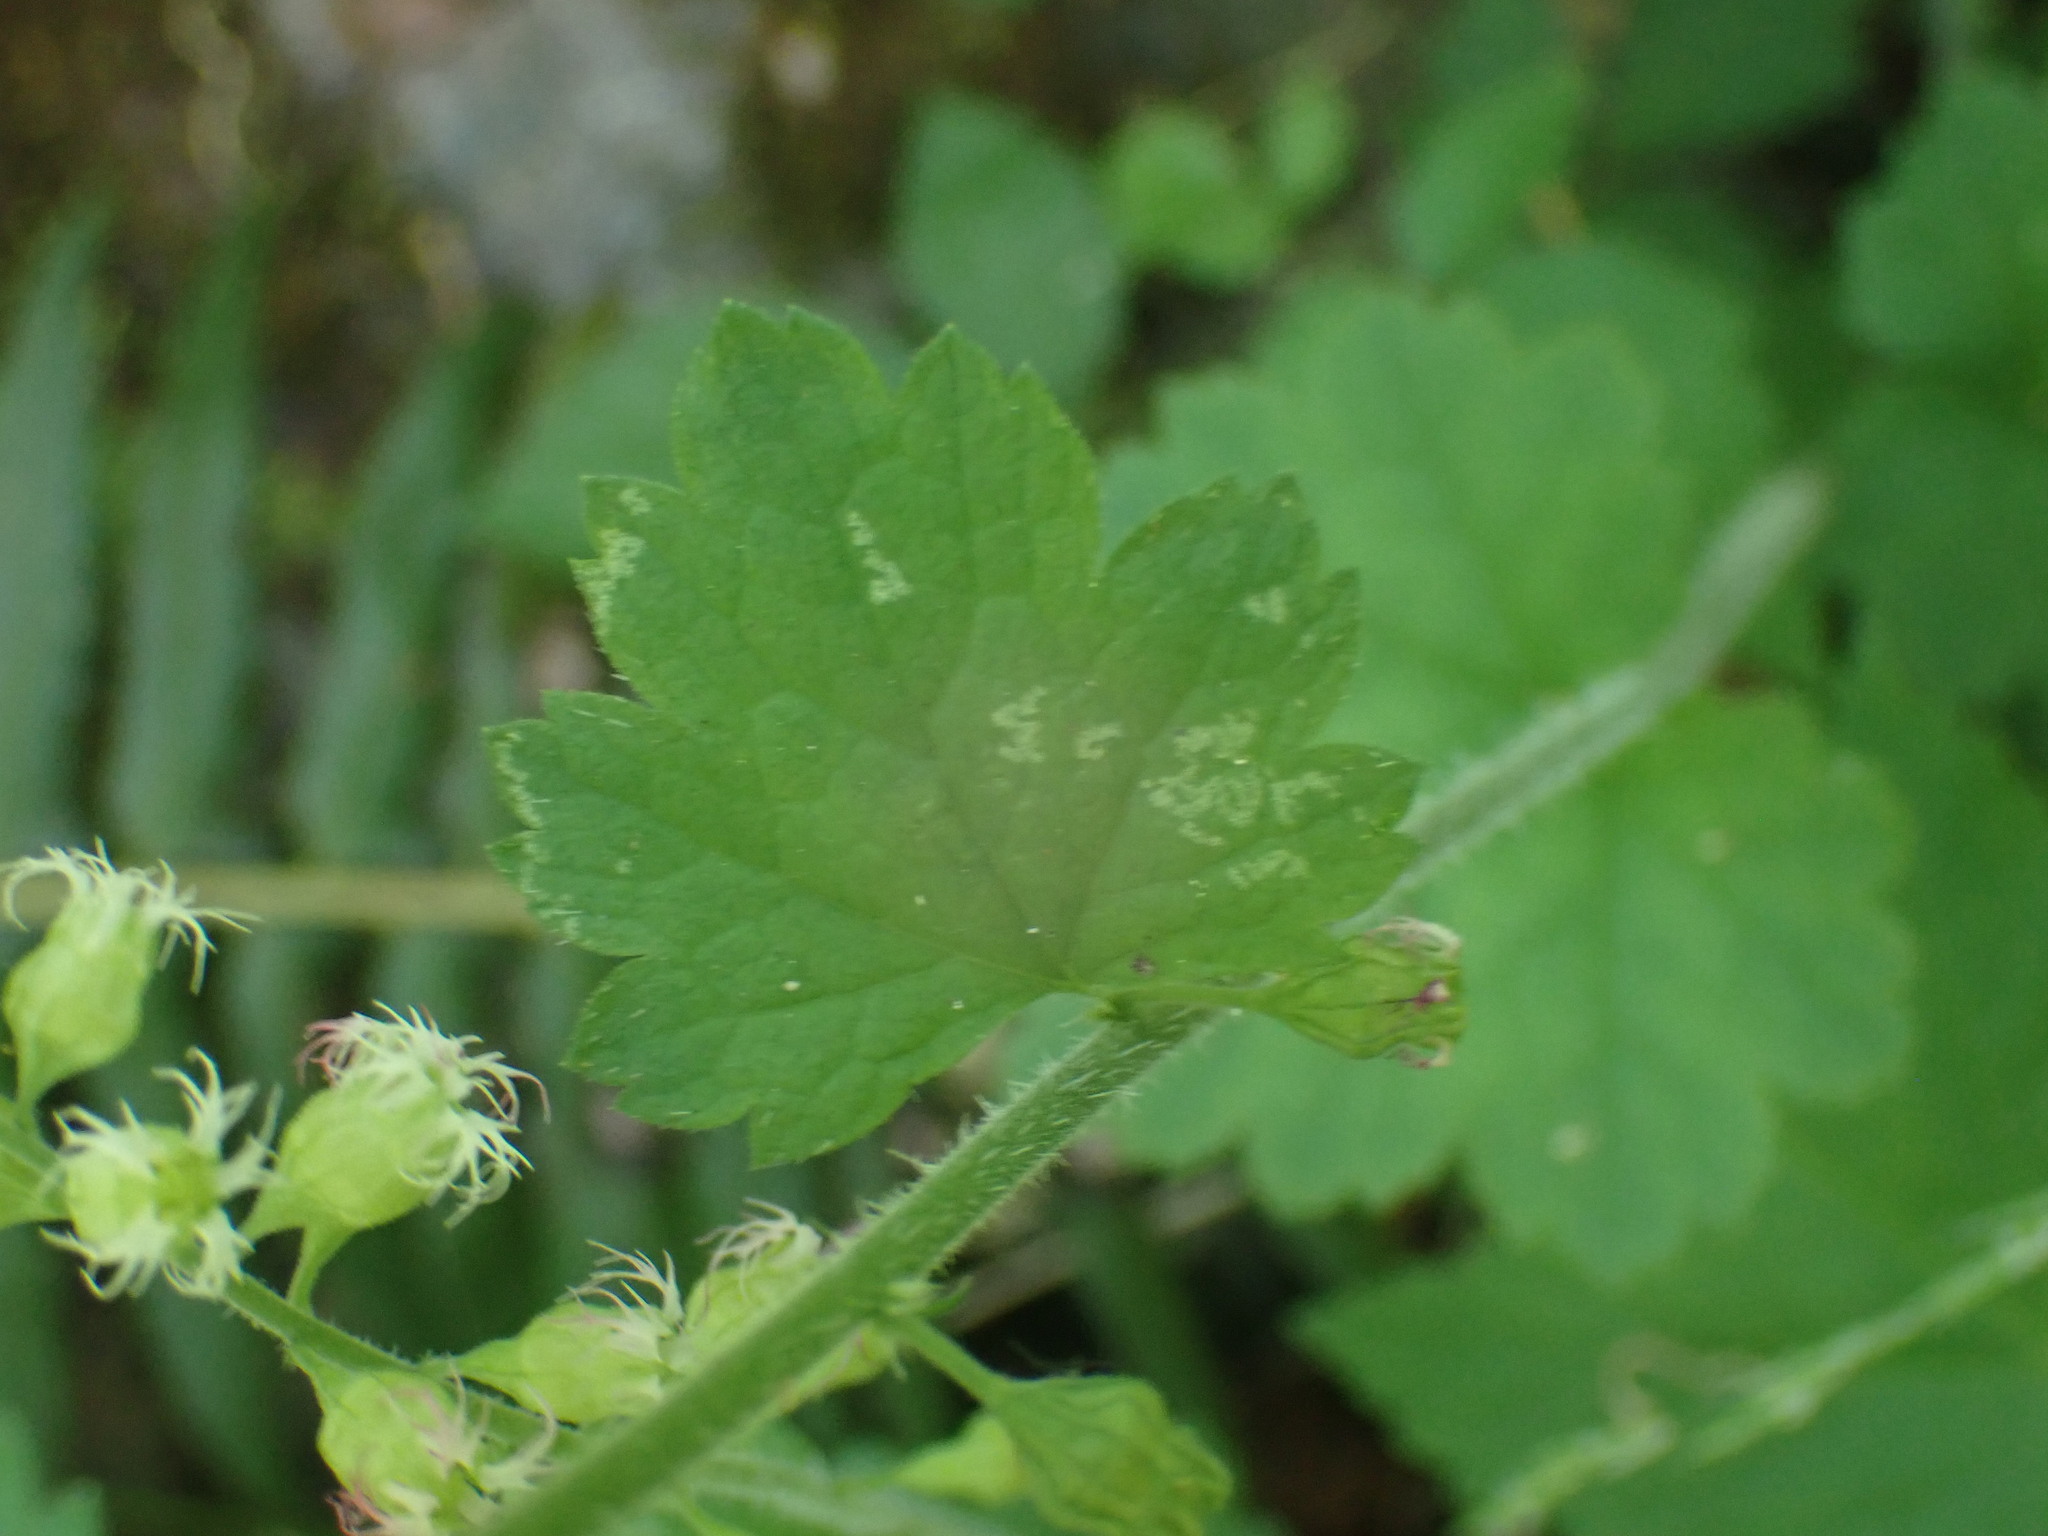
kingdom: Plantae
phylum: Tracheophyta
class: Magnoliopsida
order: Saxifragales
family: Saxifragaceae
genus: Tellima
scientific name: Tellima grandiflora
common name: Fringecups
